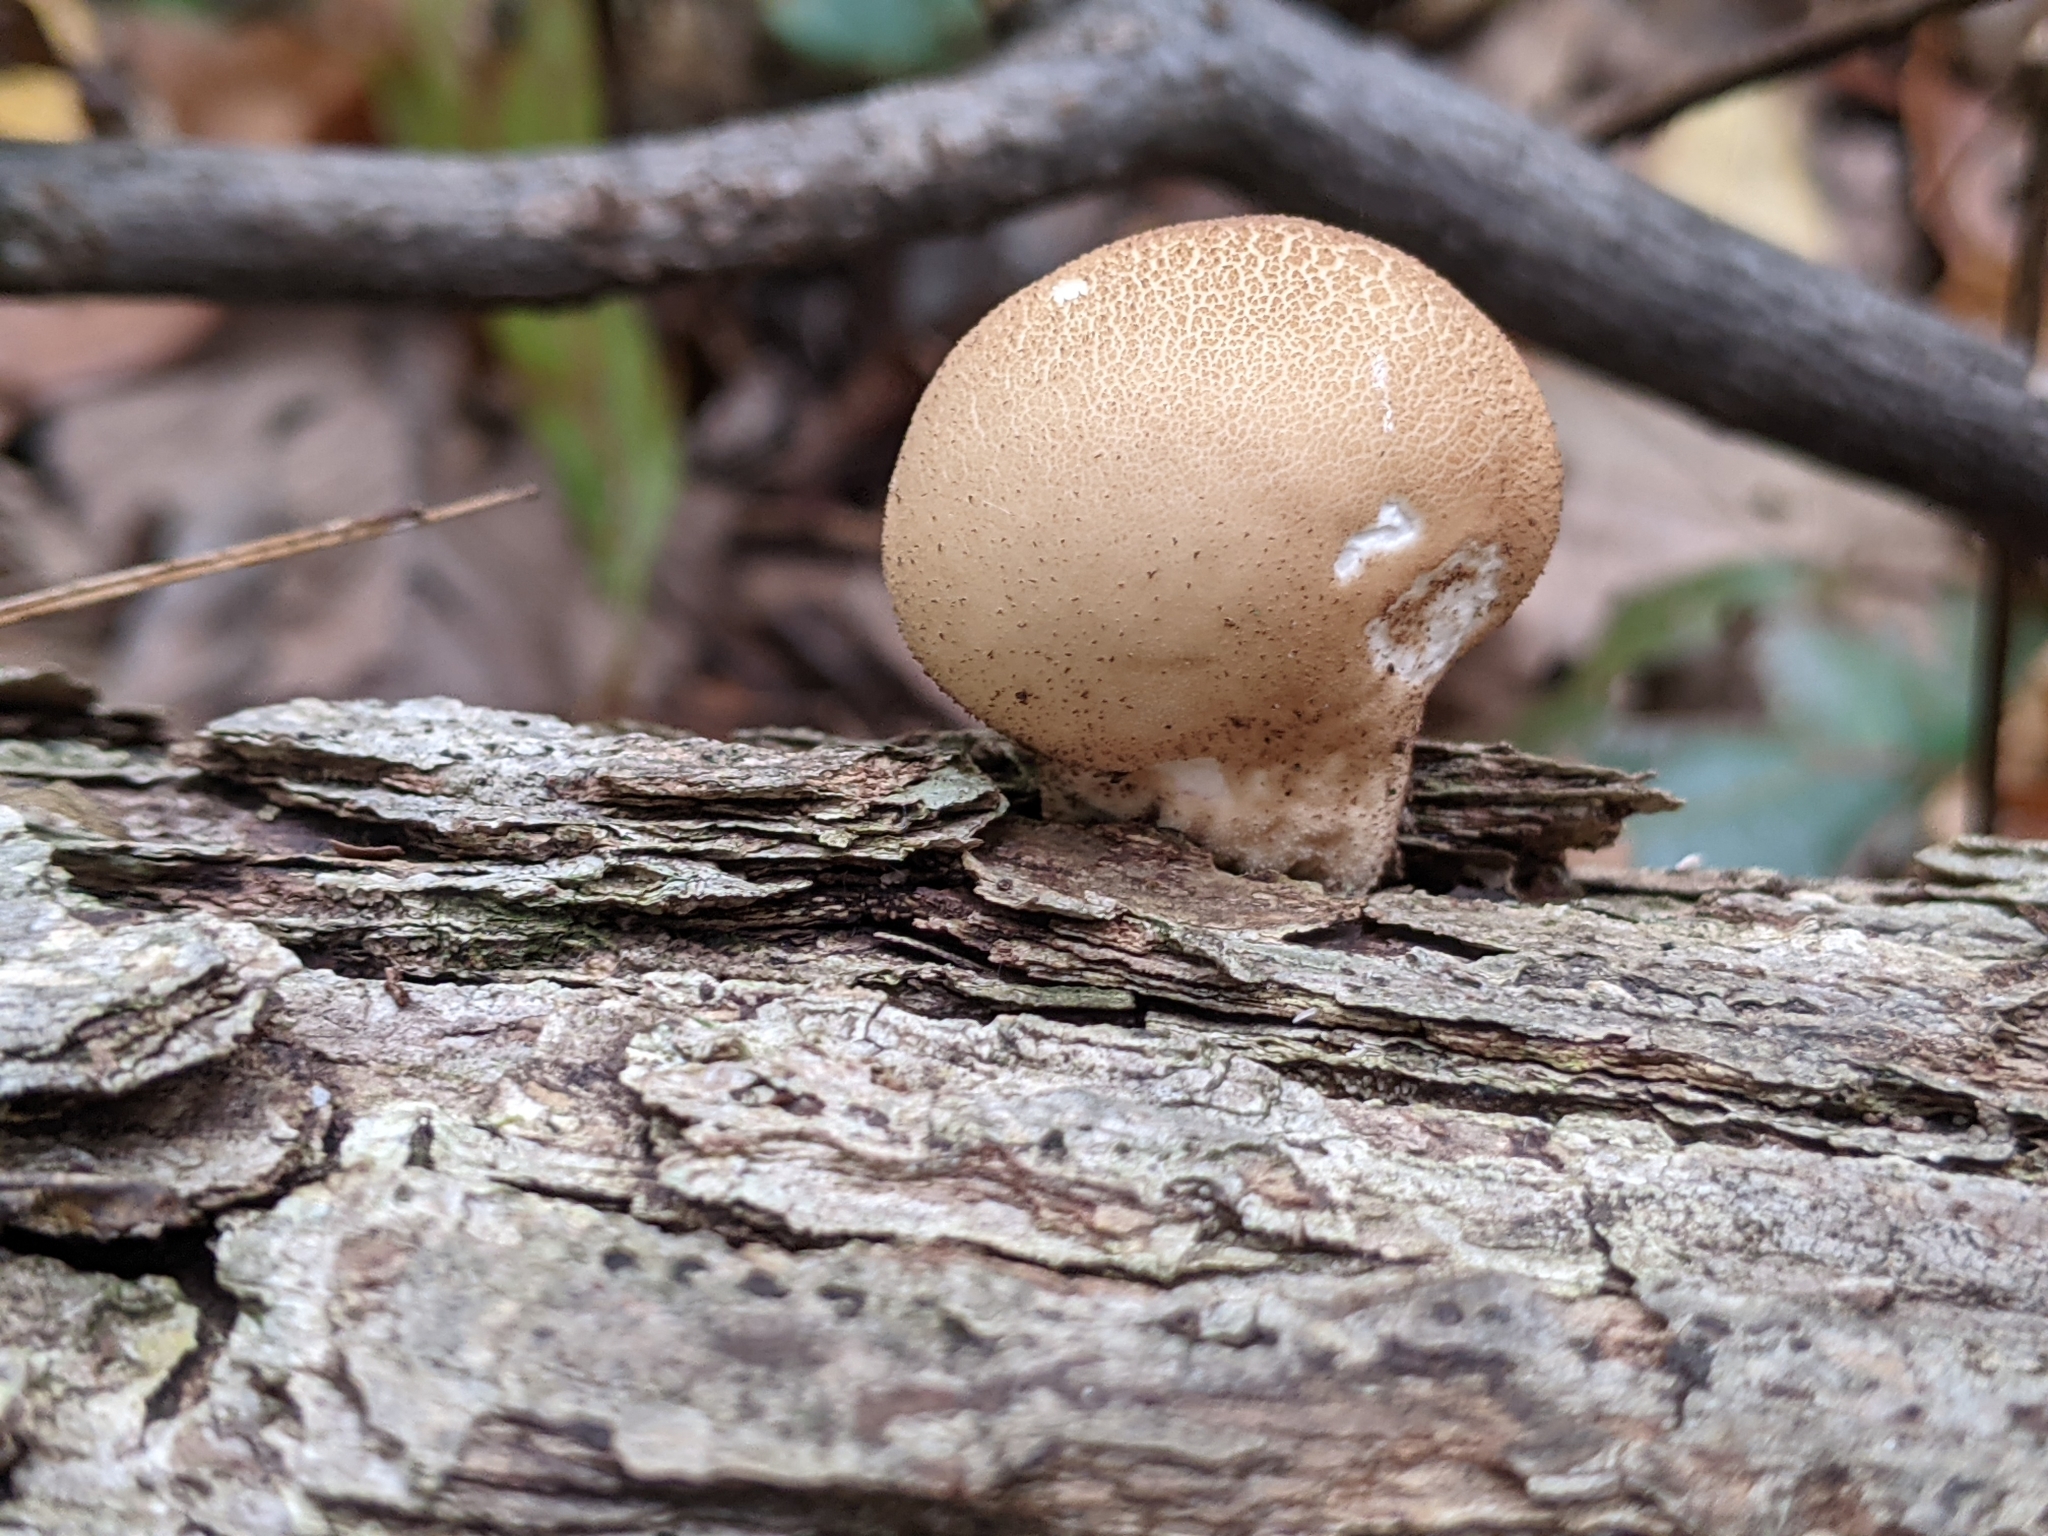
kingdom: Fungi
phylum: Basidiomycota
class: Agaricomycetes
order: Agaricales
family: Lycoperdaceae
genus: Apioperdon
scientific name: Apioperdon pyriforme
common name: Pear-shaped puffball
